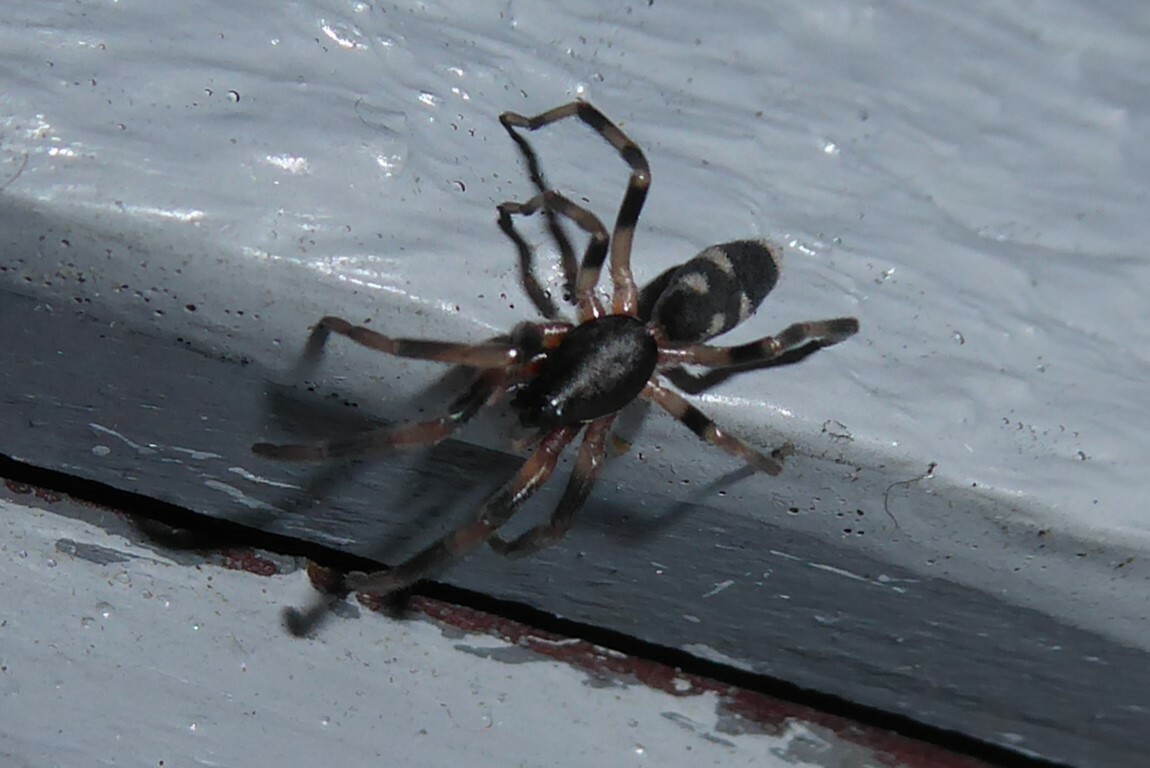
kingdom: Animalia
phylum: Arthropoda
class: Arachnida
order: Araneae
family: Lamponidae
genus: Lampona
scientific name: Lampona cylindrata
